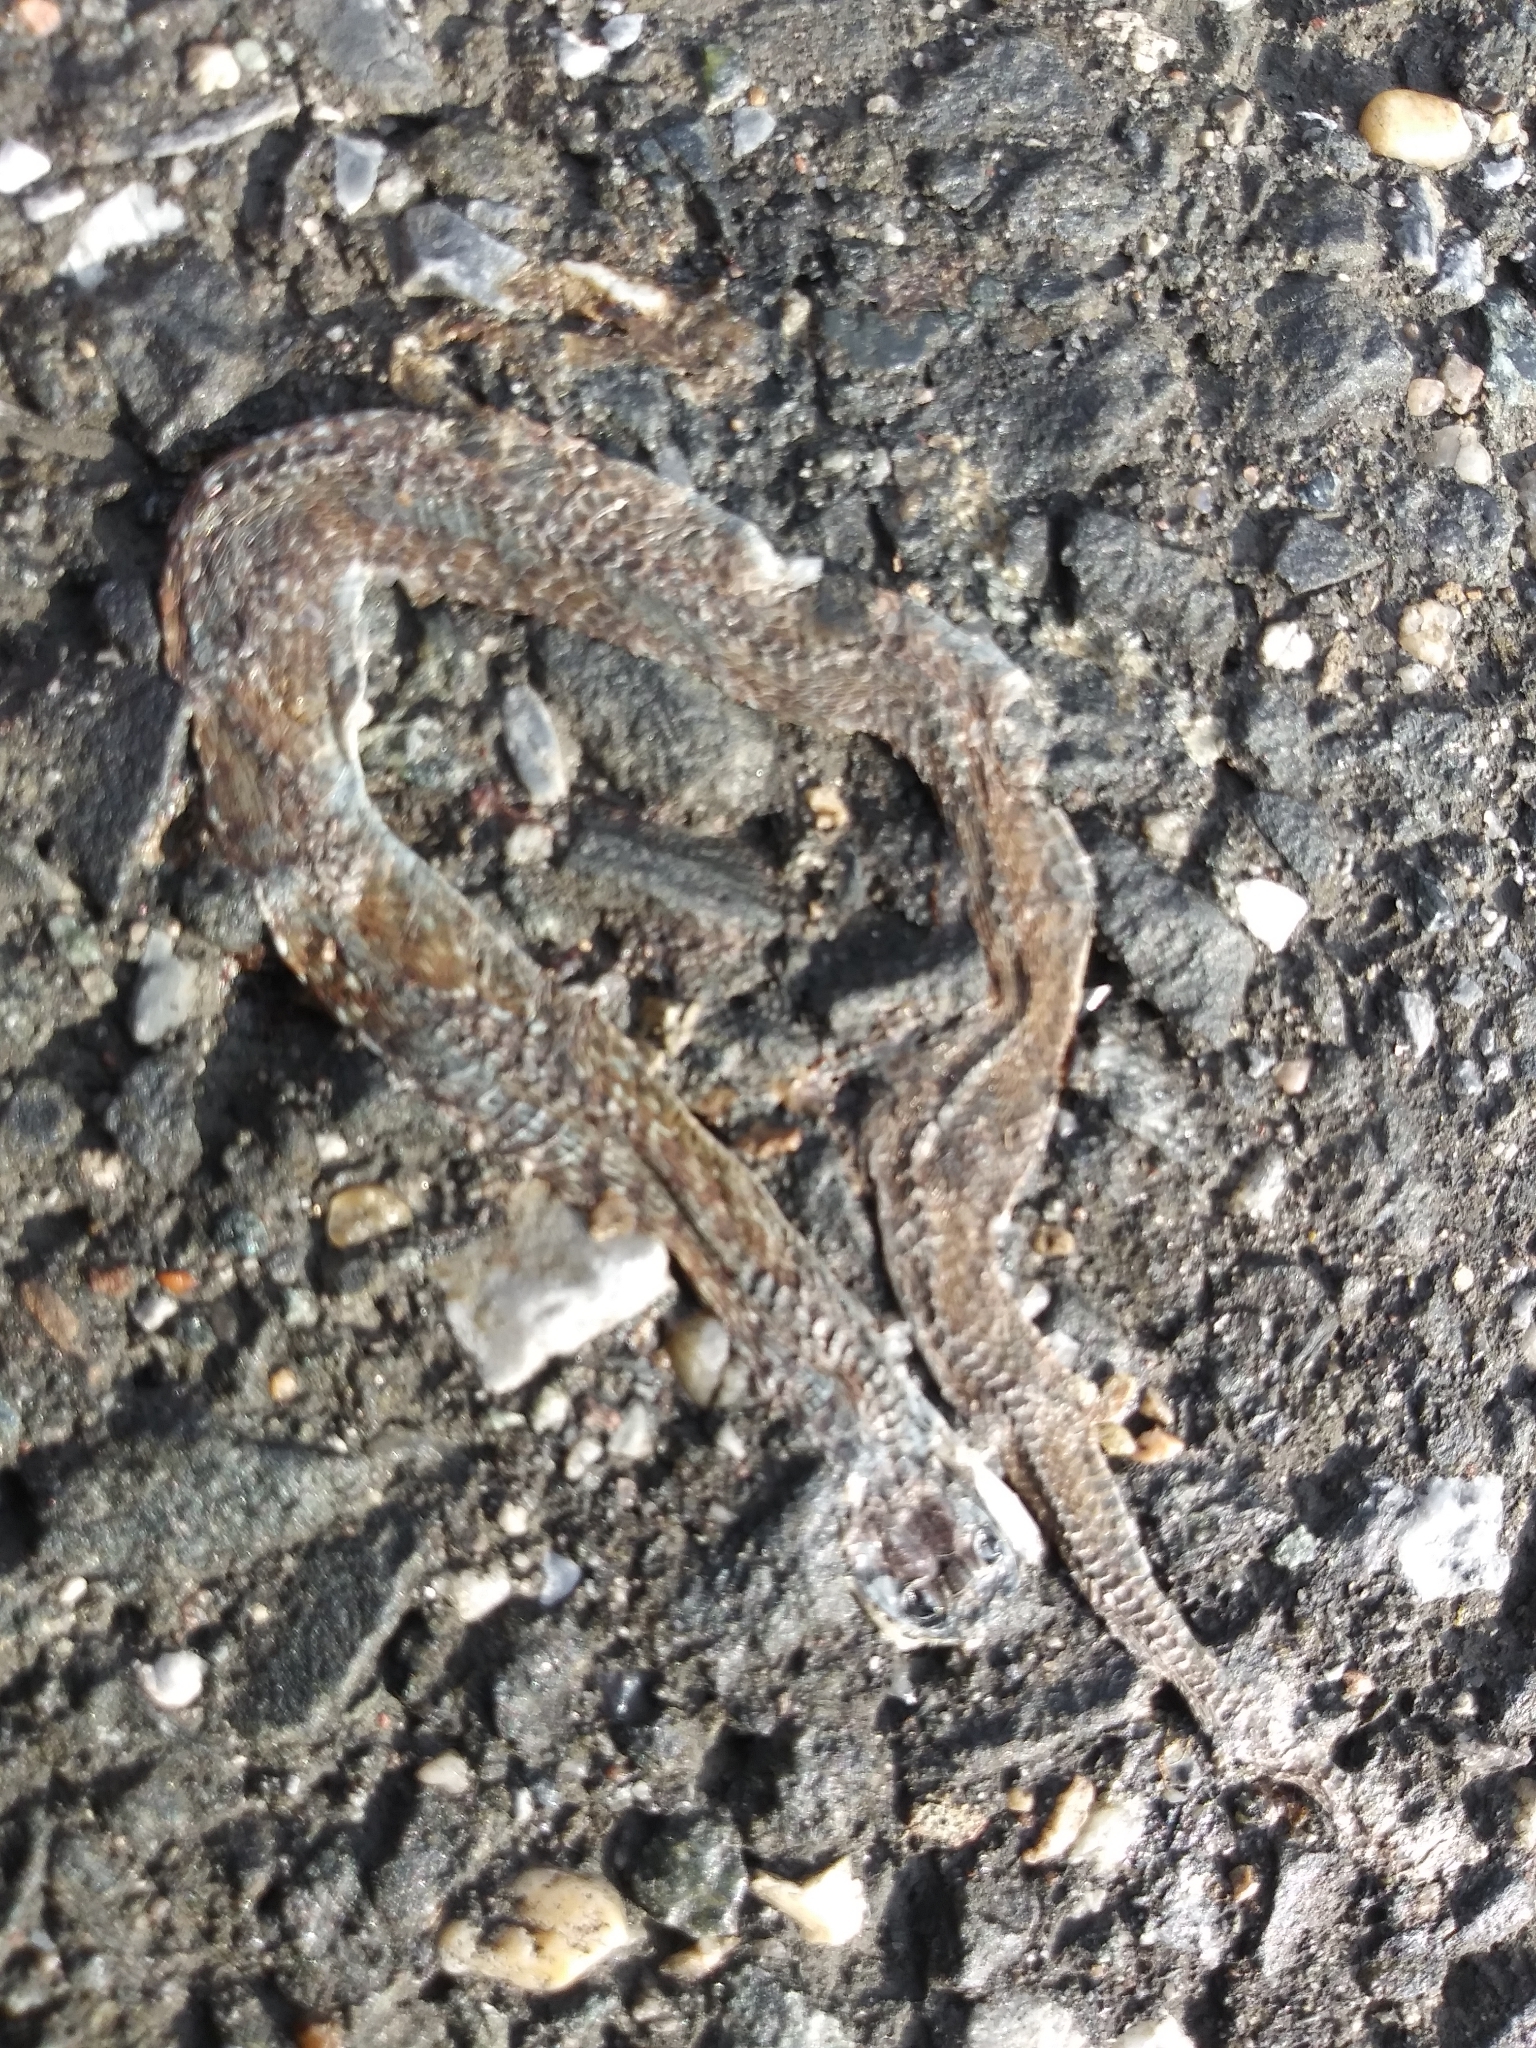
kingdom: Animalia
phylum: Chordata
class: Squamata
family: Colubridae
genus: Storeria
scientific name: Storeria dekayi
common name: (dekay’s) brown snake
